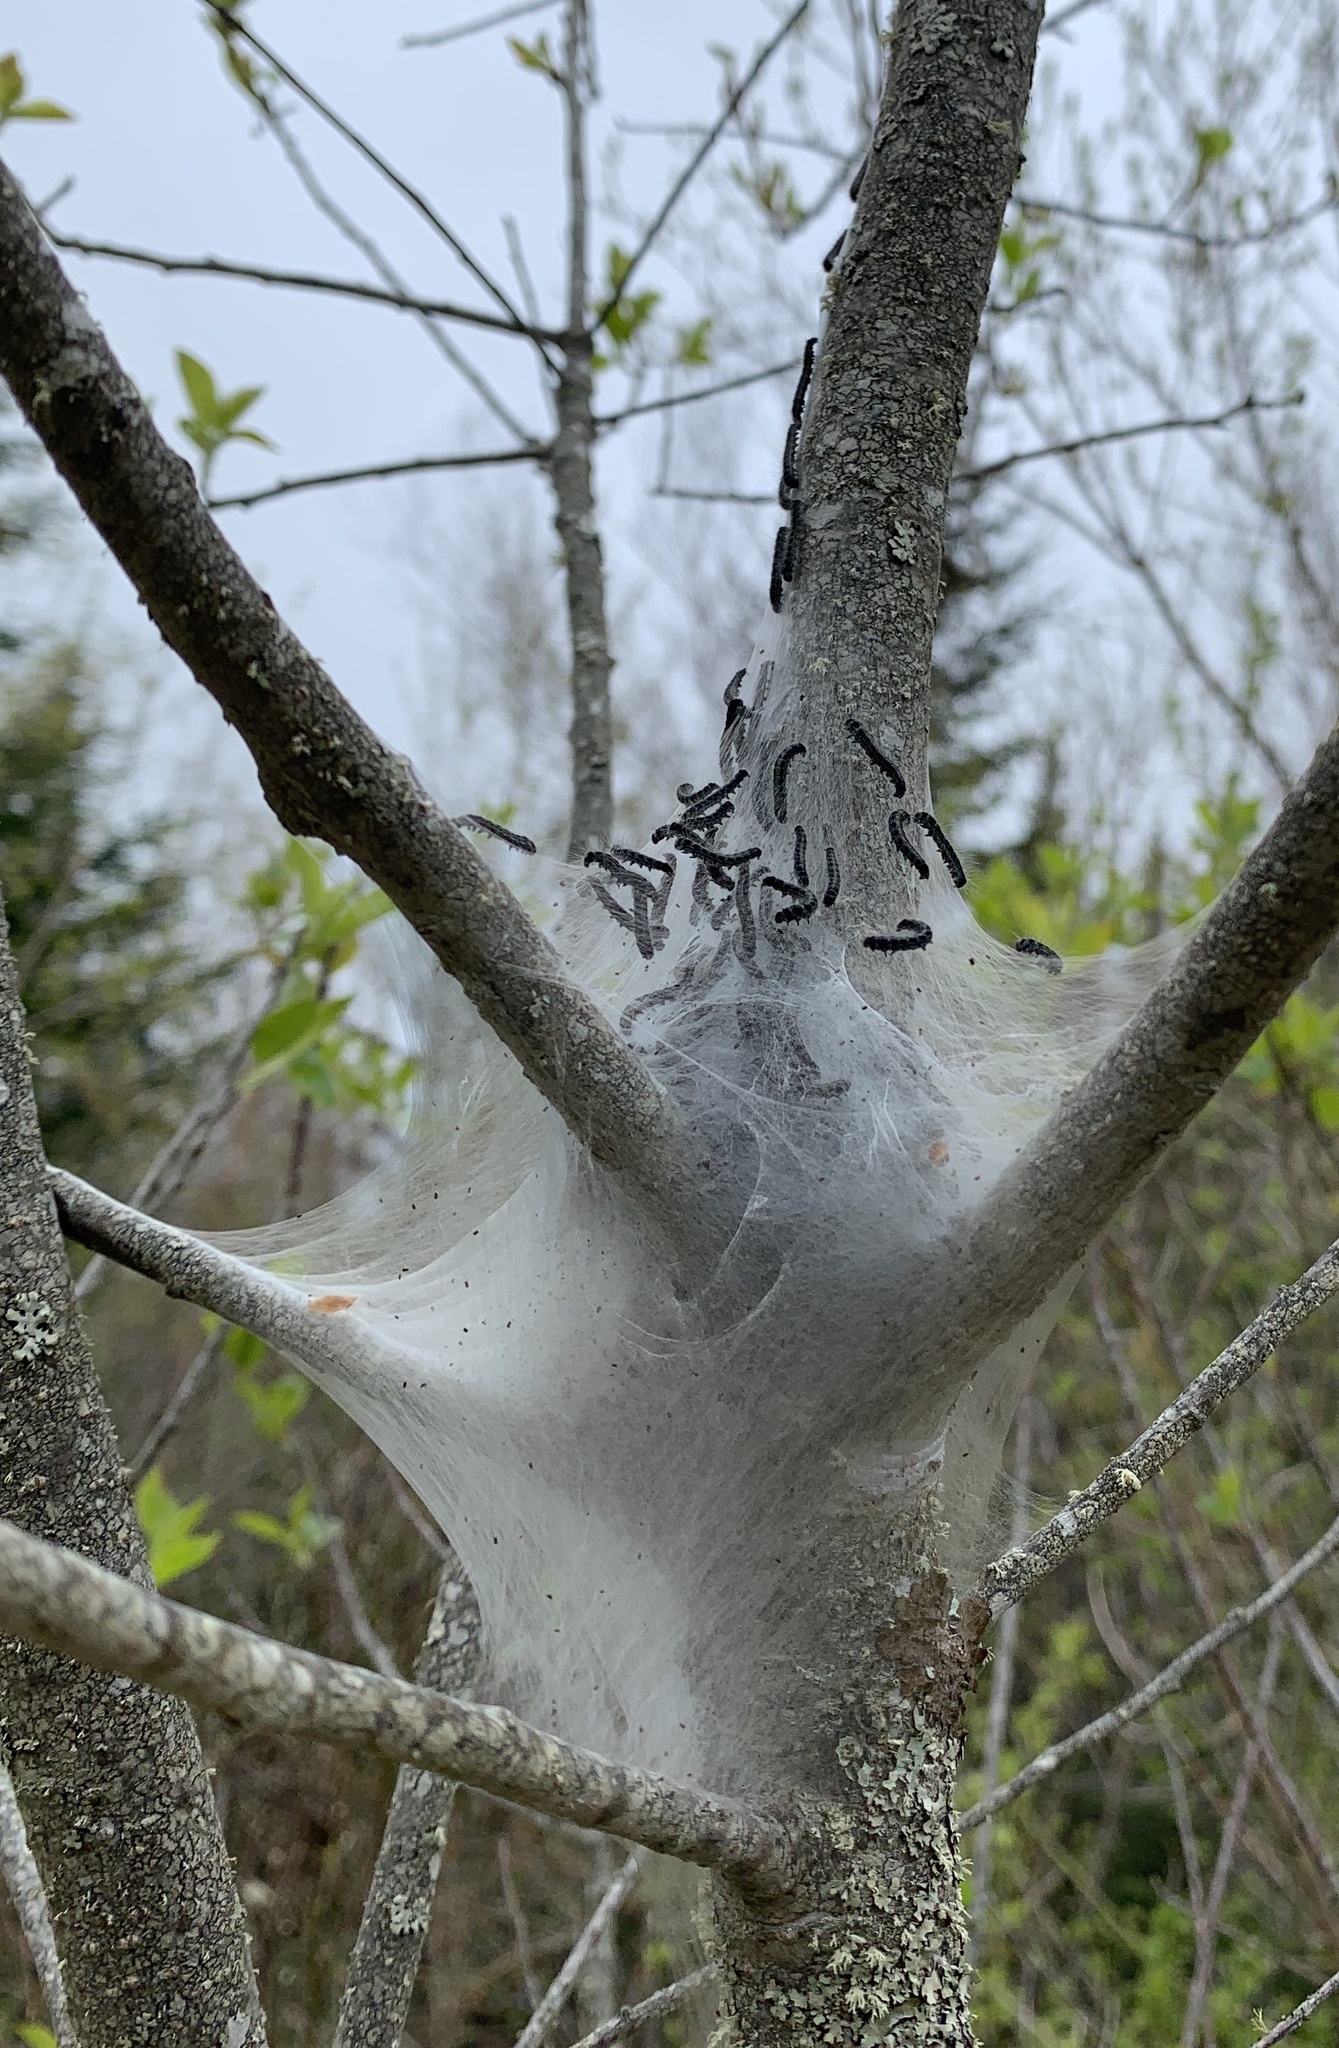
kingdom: Animalia
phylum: Arthropoda
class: Insecta
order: Lepidoptera
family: Lasiocampidae
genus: Malacosoma
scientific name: Malacosoma americana
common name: Eastern tent caterpillar moth
